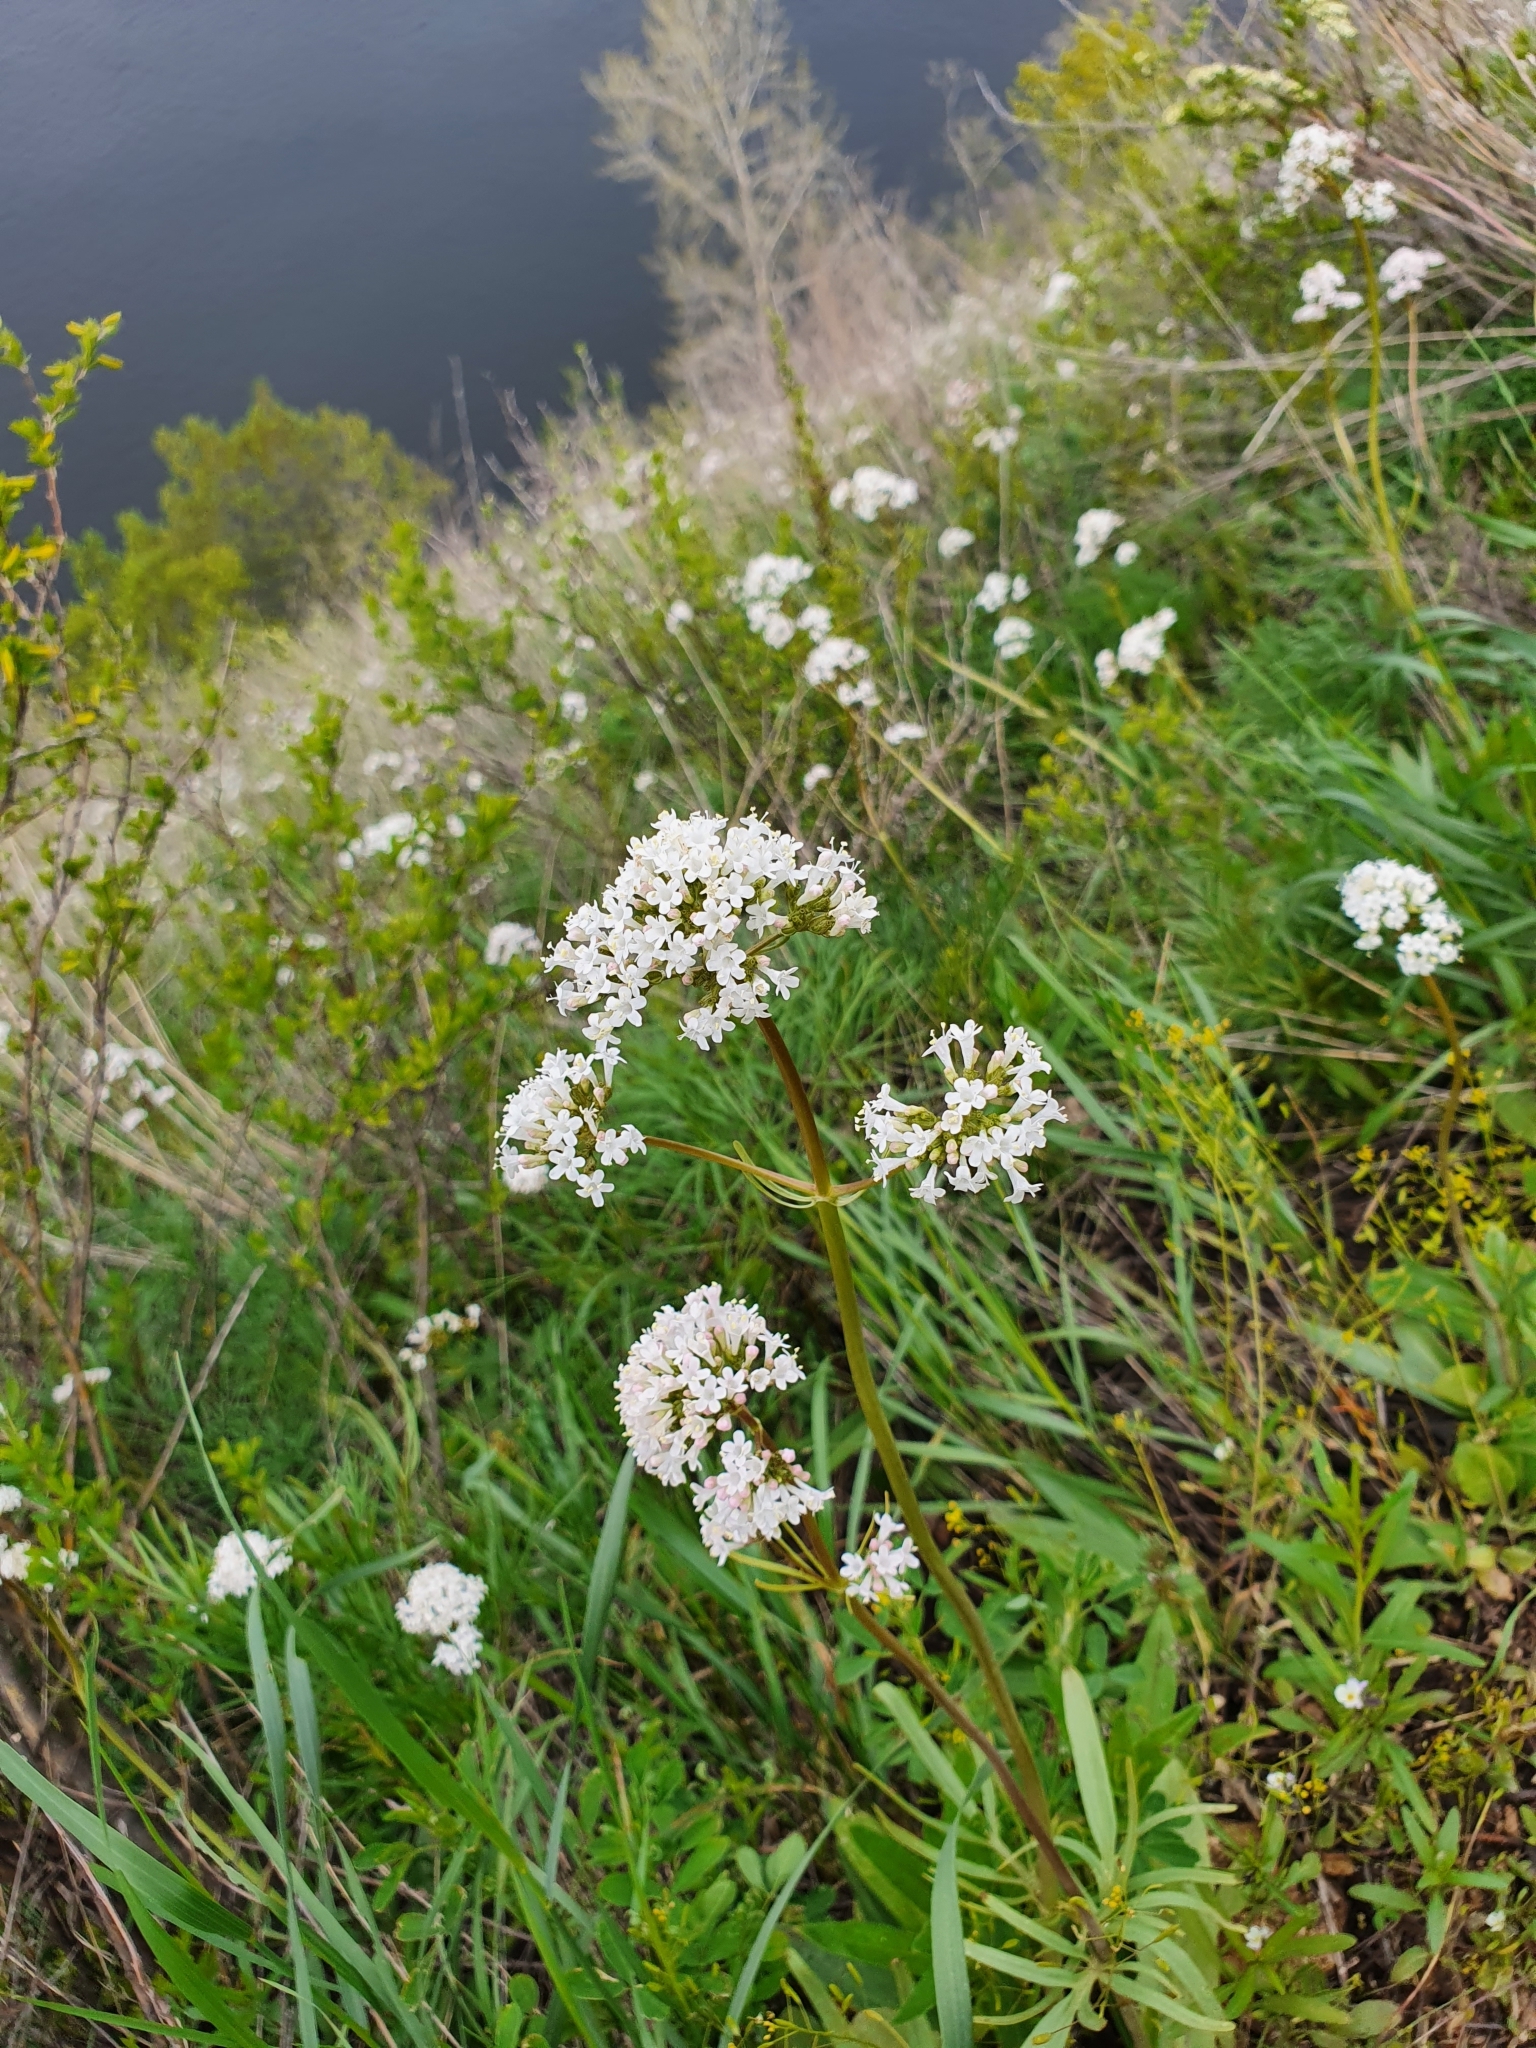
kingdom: Plantae
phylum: Tracheophyta
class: Magnoliopsida
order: Dipsacales
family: Caprifoliaceae
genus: Valeriana
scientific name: Valeriana tuberosa
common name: Tuberous valerian
